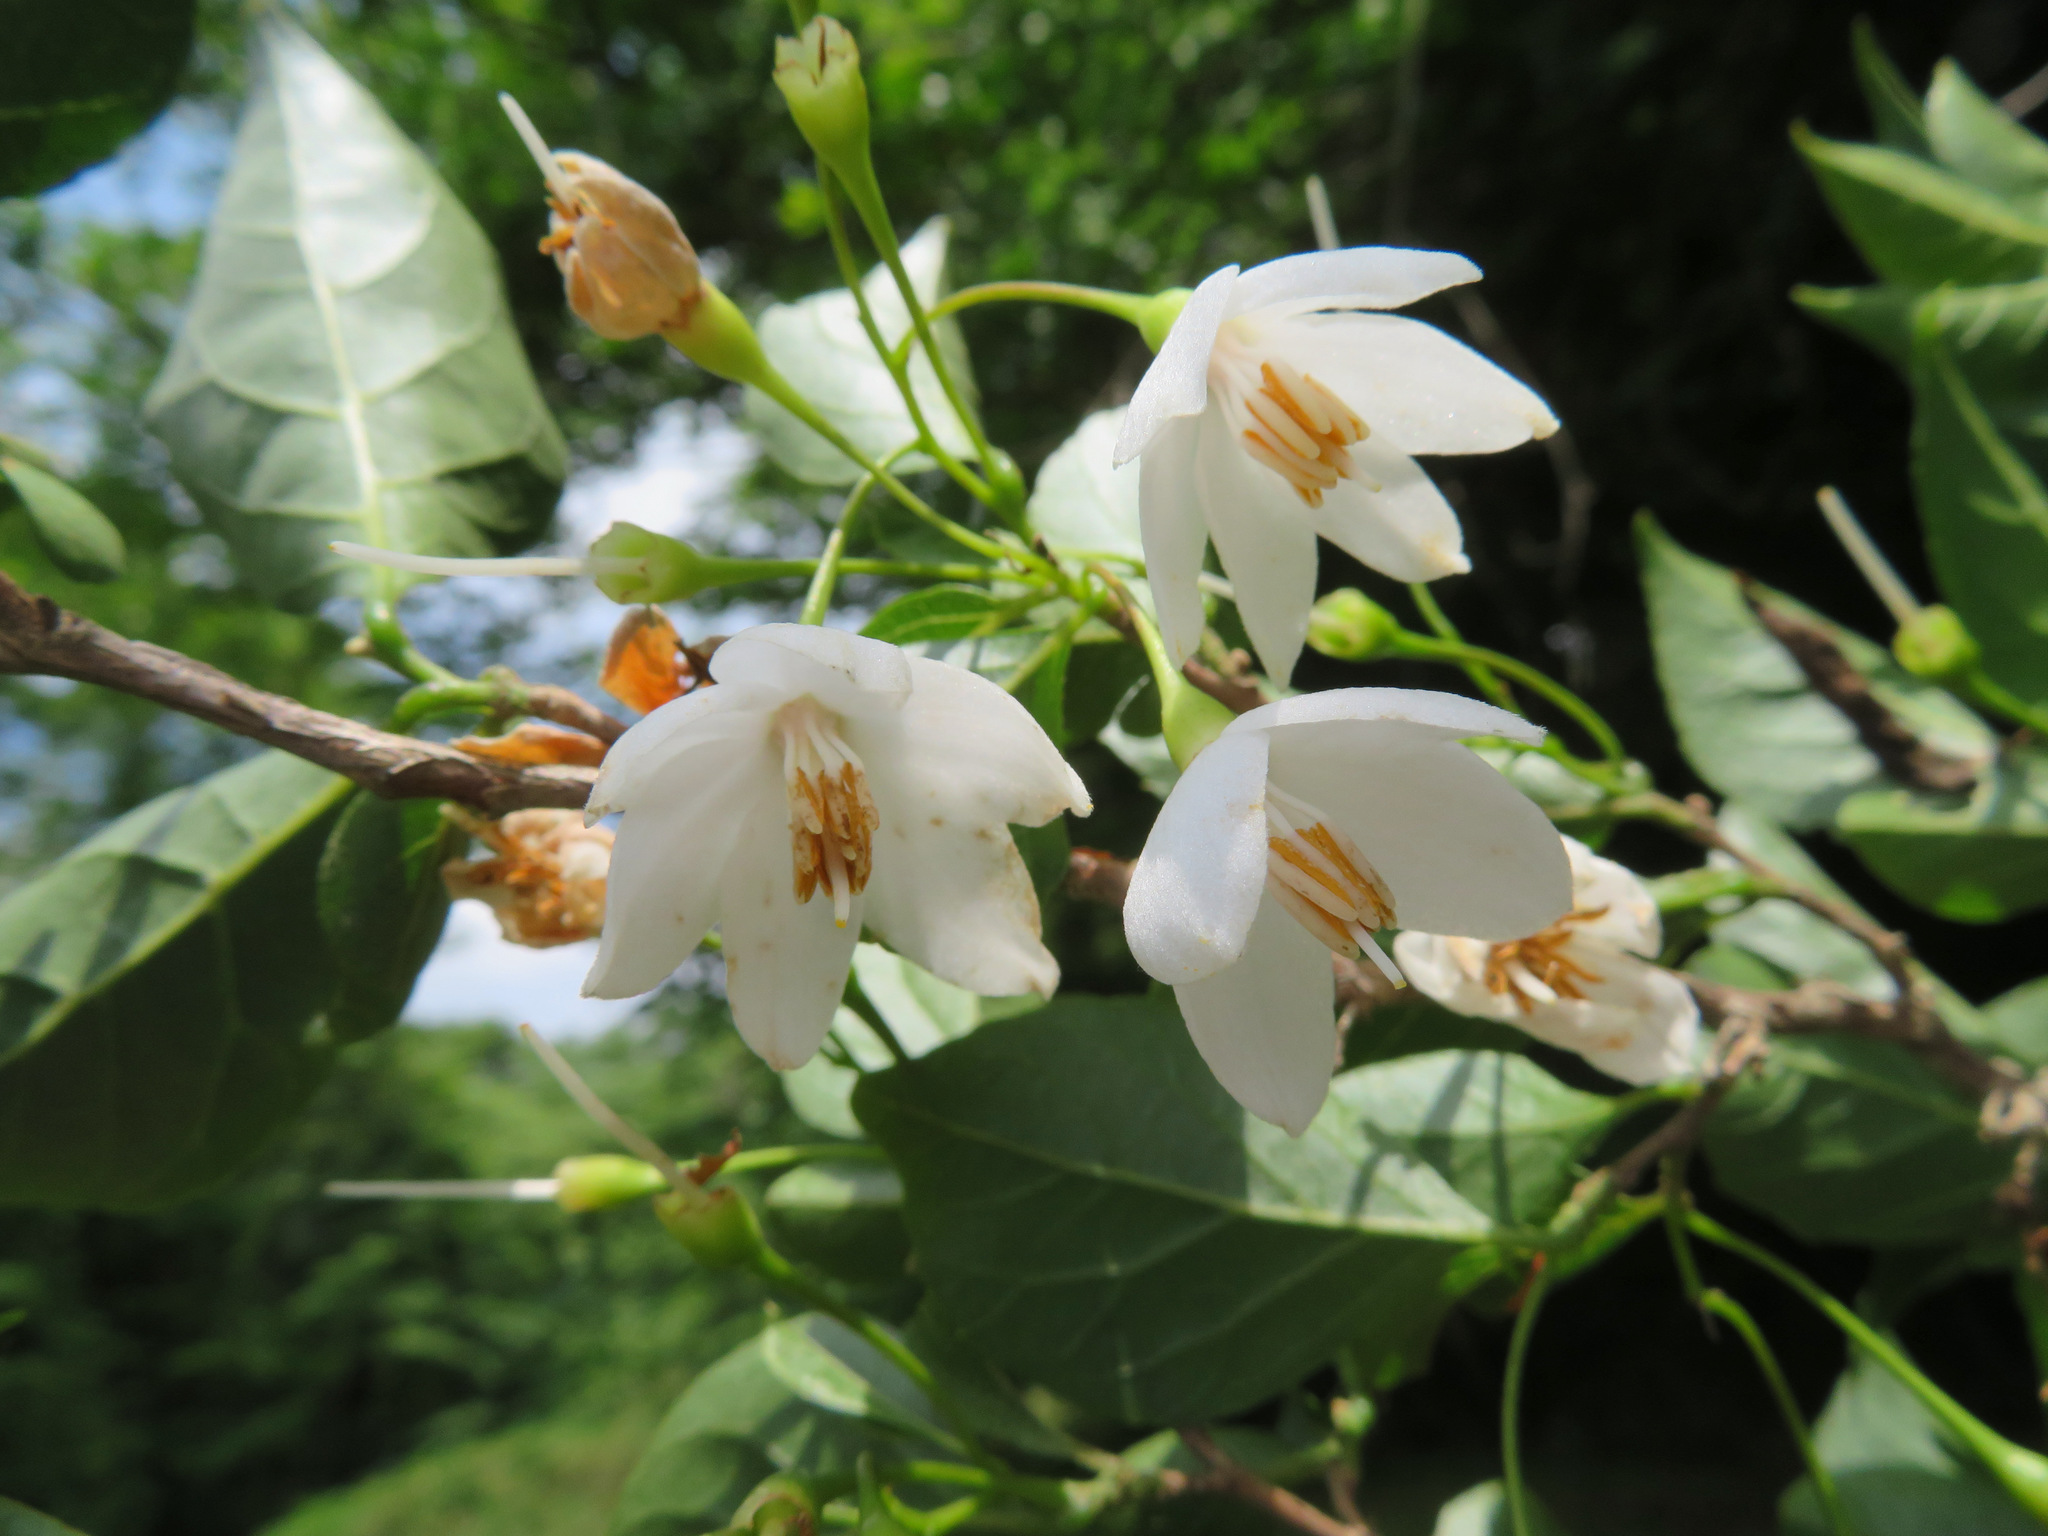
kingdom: Plantae
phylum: Tracheophyta
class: Magnoliopsida
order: Ericales
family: Styracaceae
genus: Styrax
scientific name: Styrax japonicus
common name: Japanese snowbell
